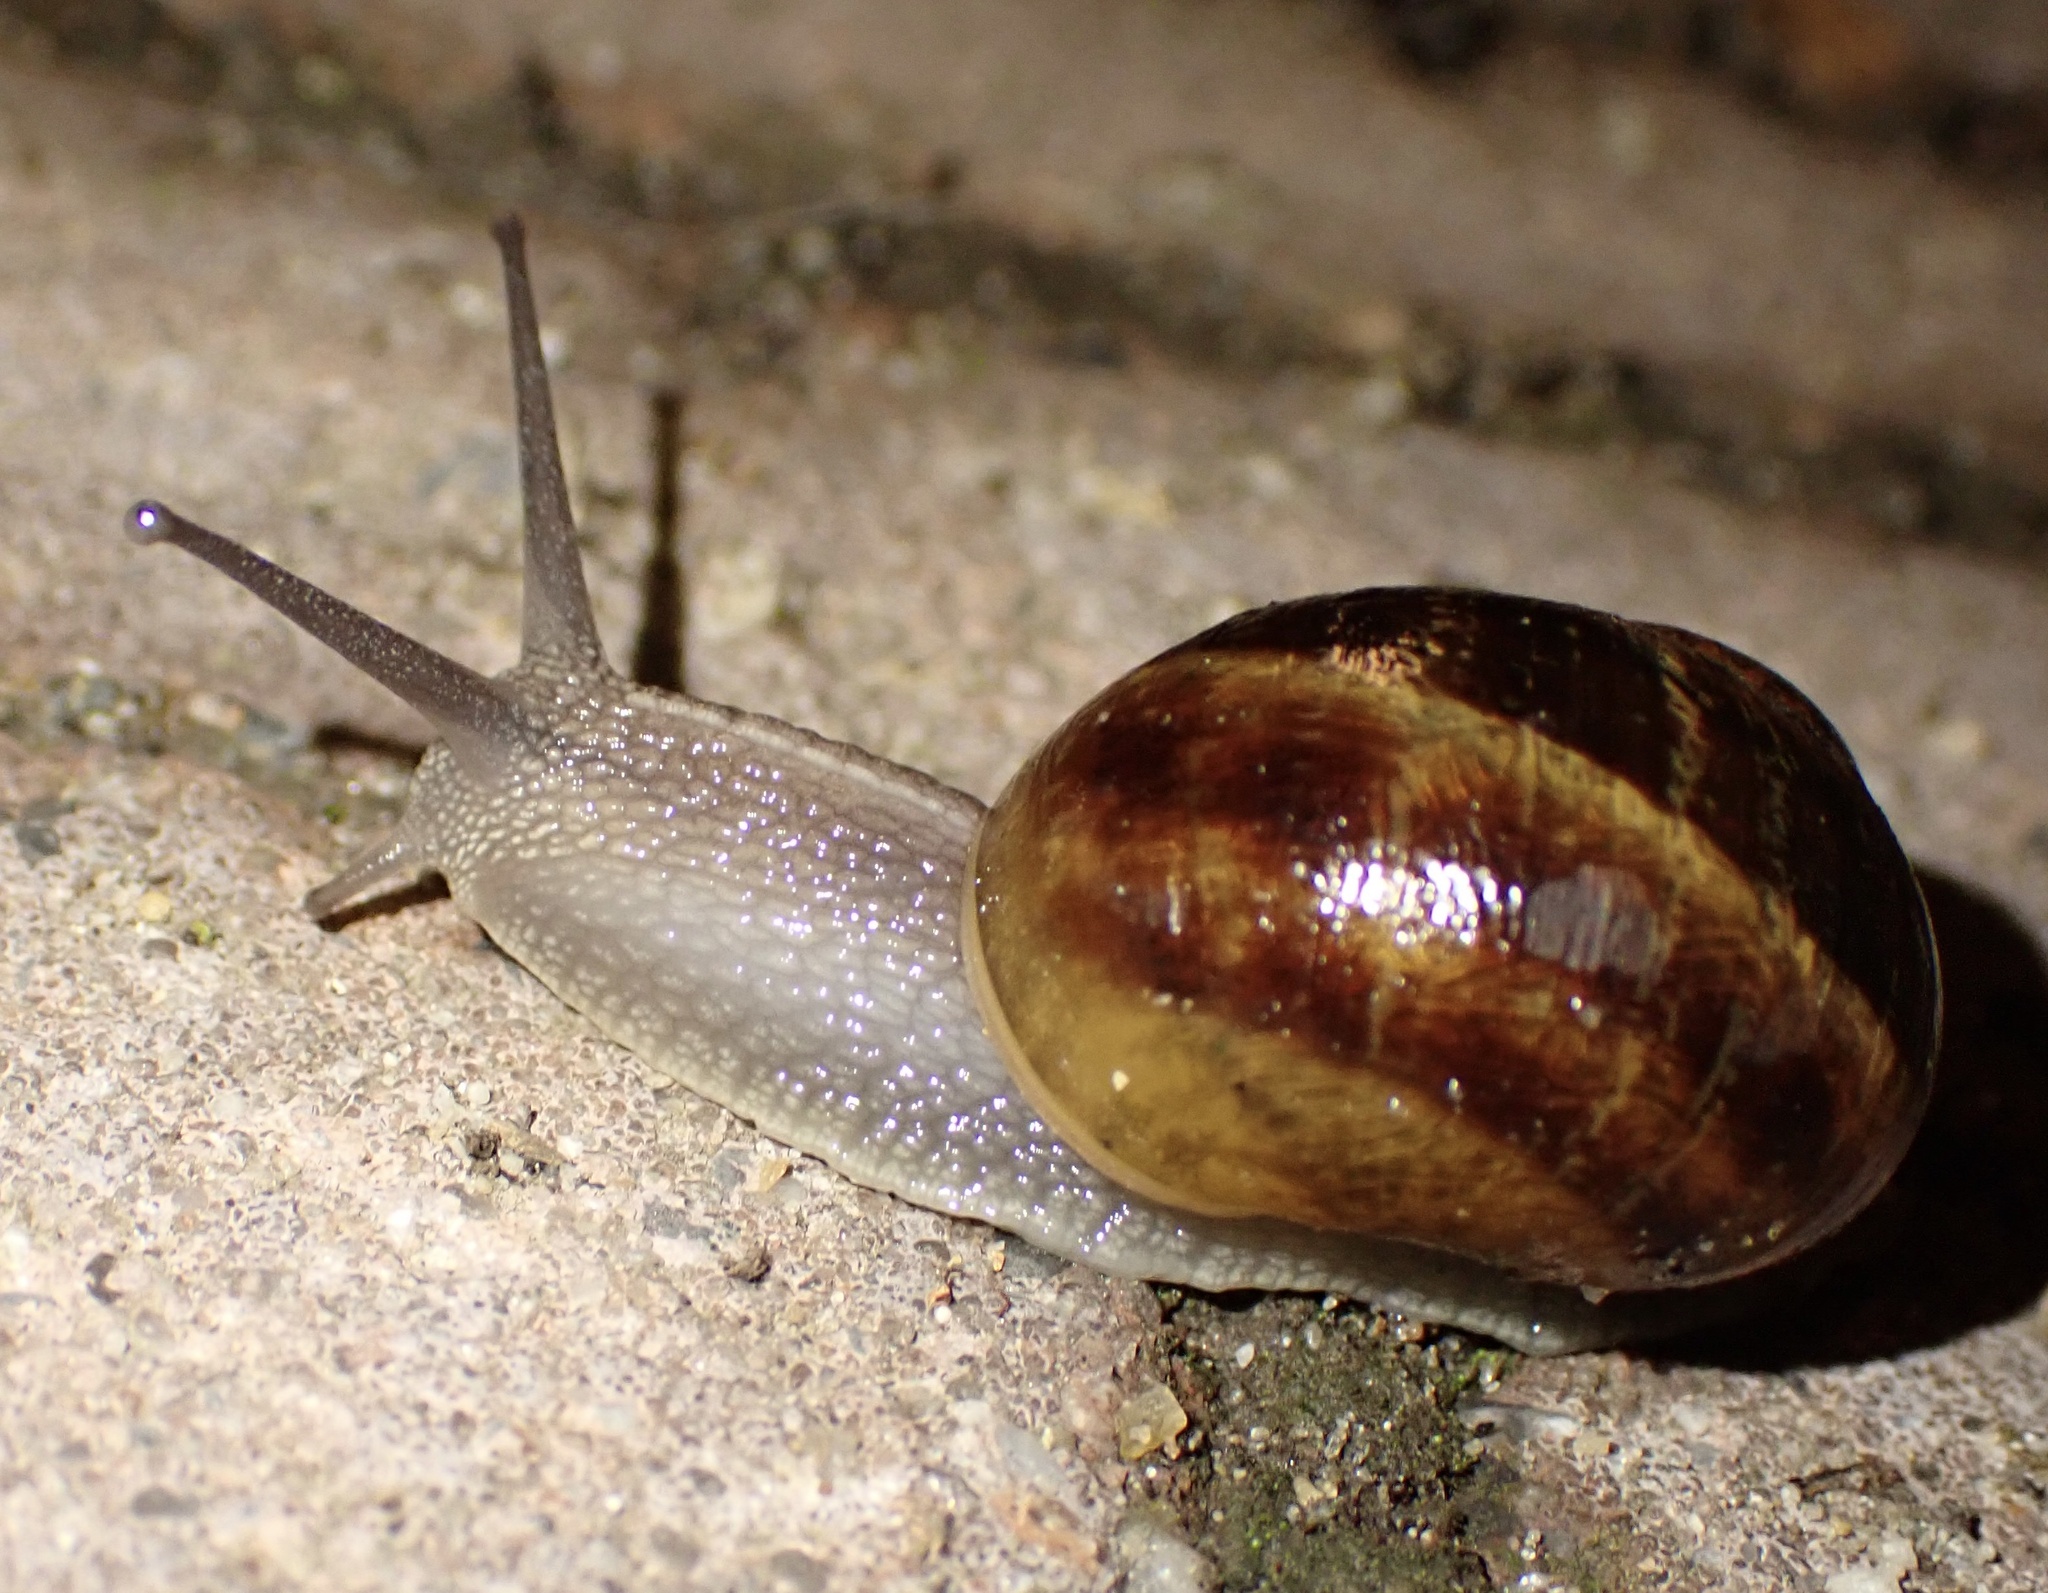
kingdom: Animalia
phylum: Mollusca
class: Gastropoda
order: Stylommatophora
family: Helicidae
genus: Cornu
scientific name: Cornu aspersum
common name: Brown garden snail
